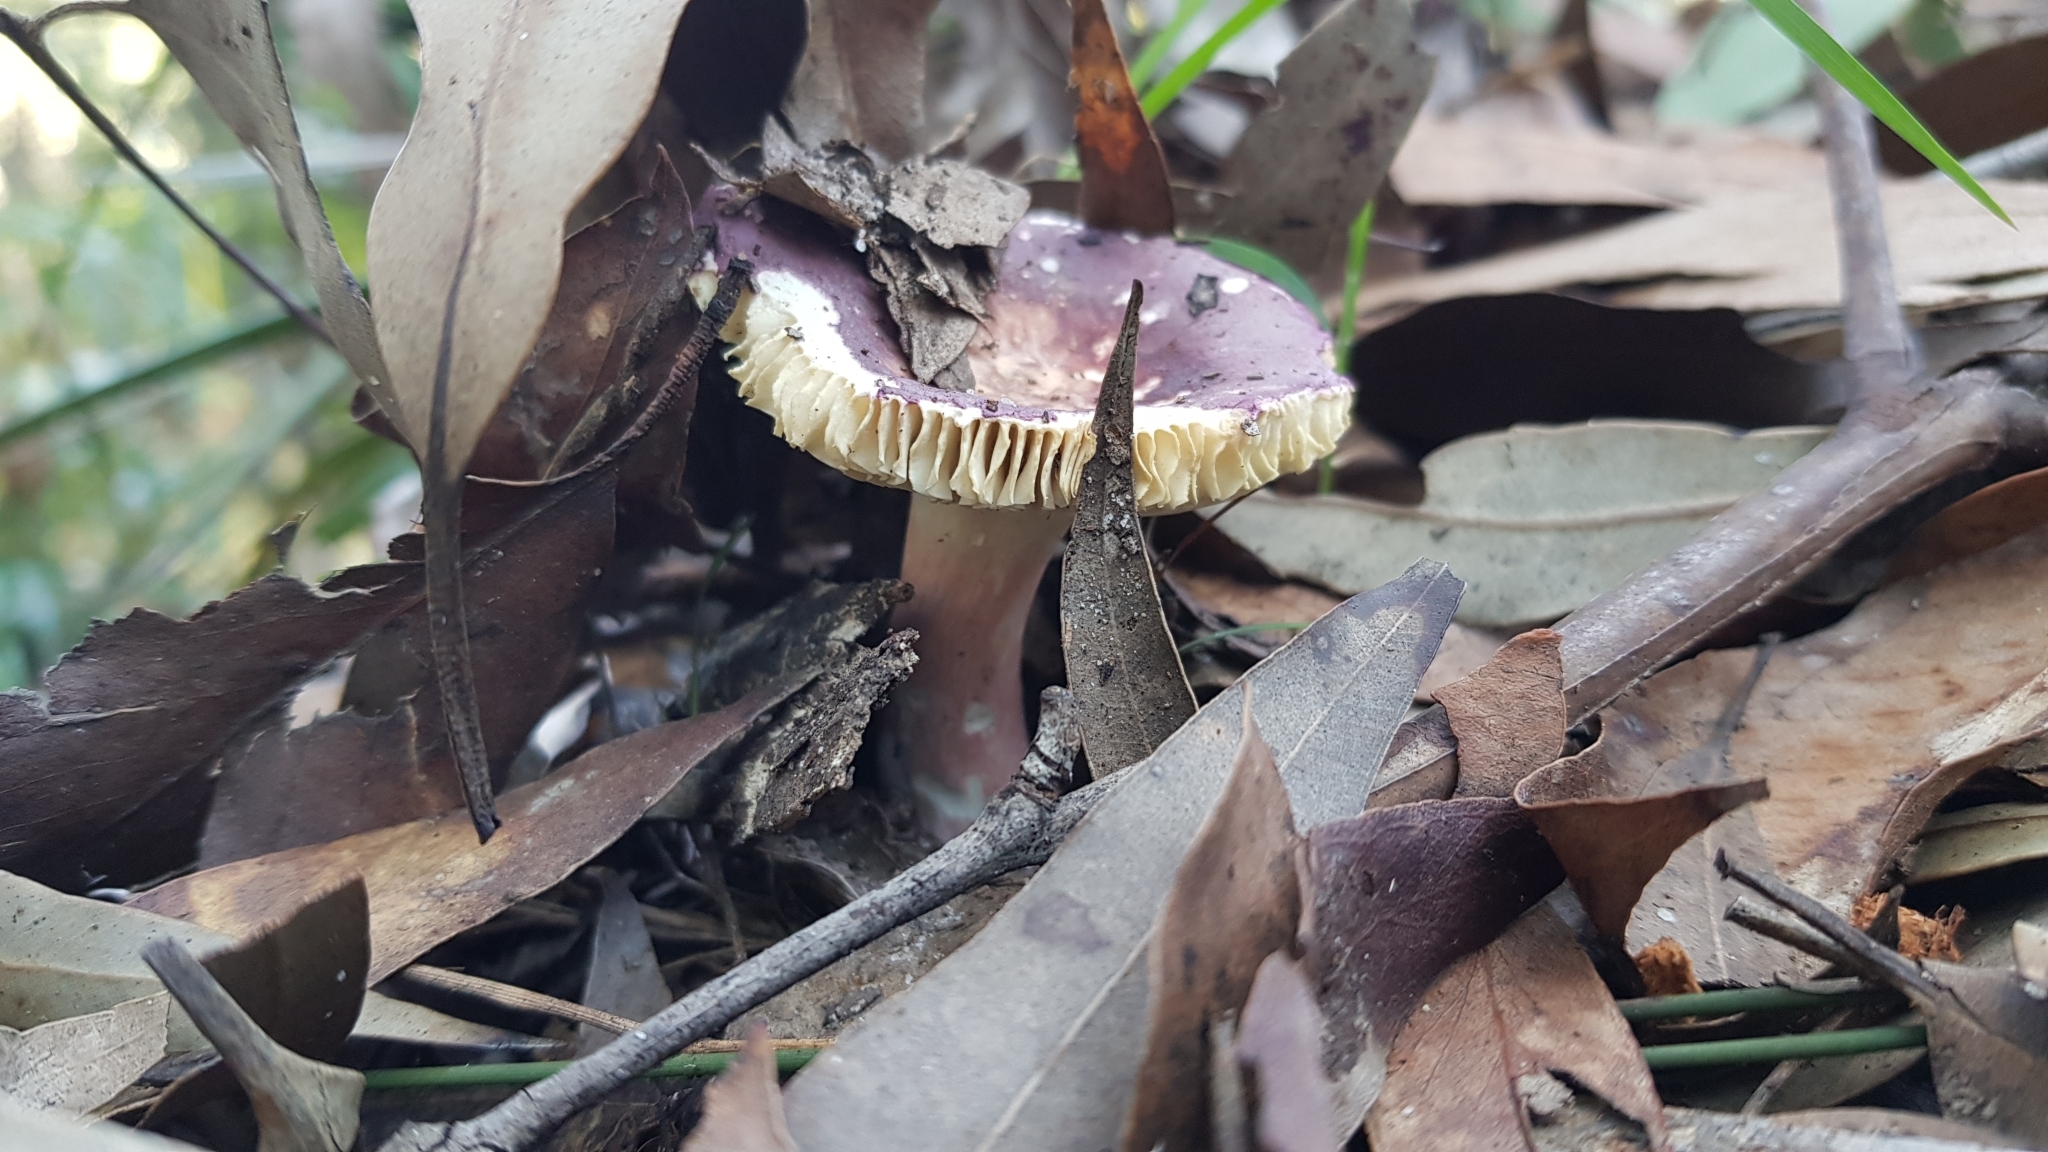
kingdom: Fungi
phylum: Basidiomycota
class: Agaricomycetes
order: Russulales
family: Russulaceae
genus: Russula
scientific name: Russula lenkunya
